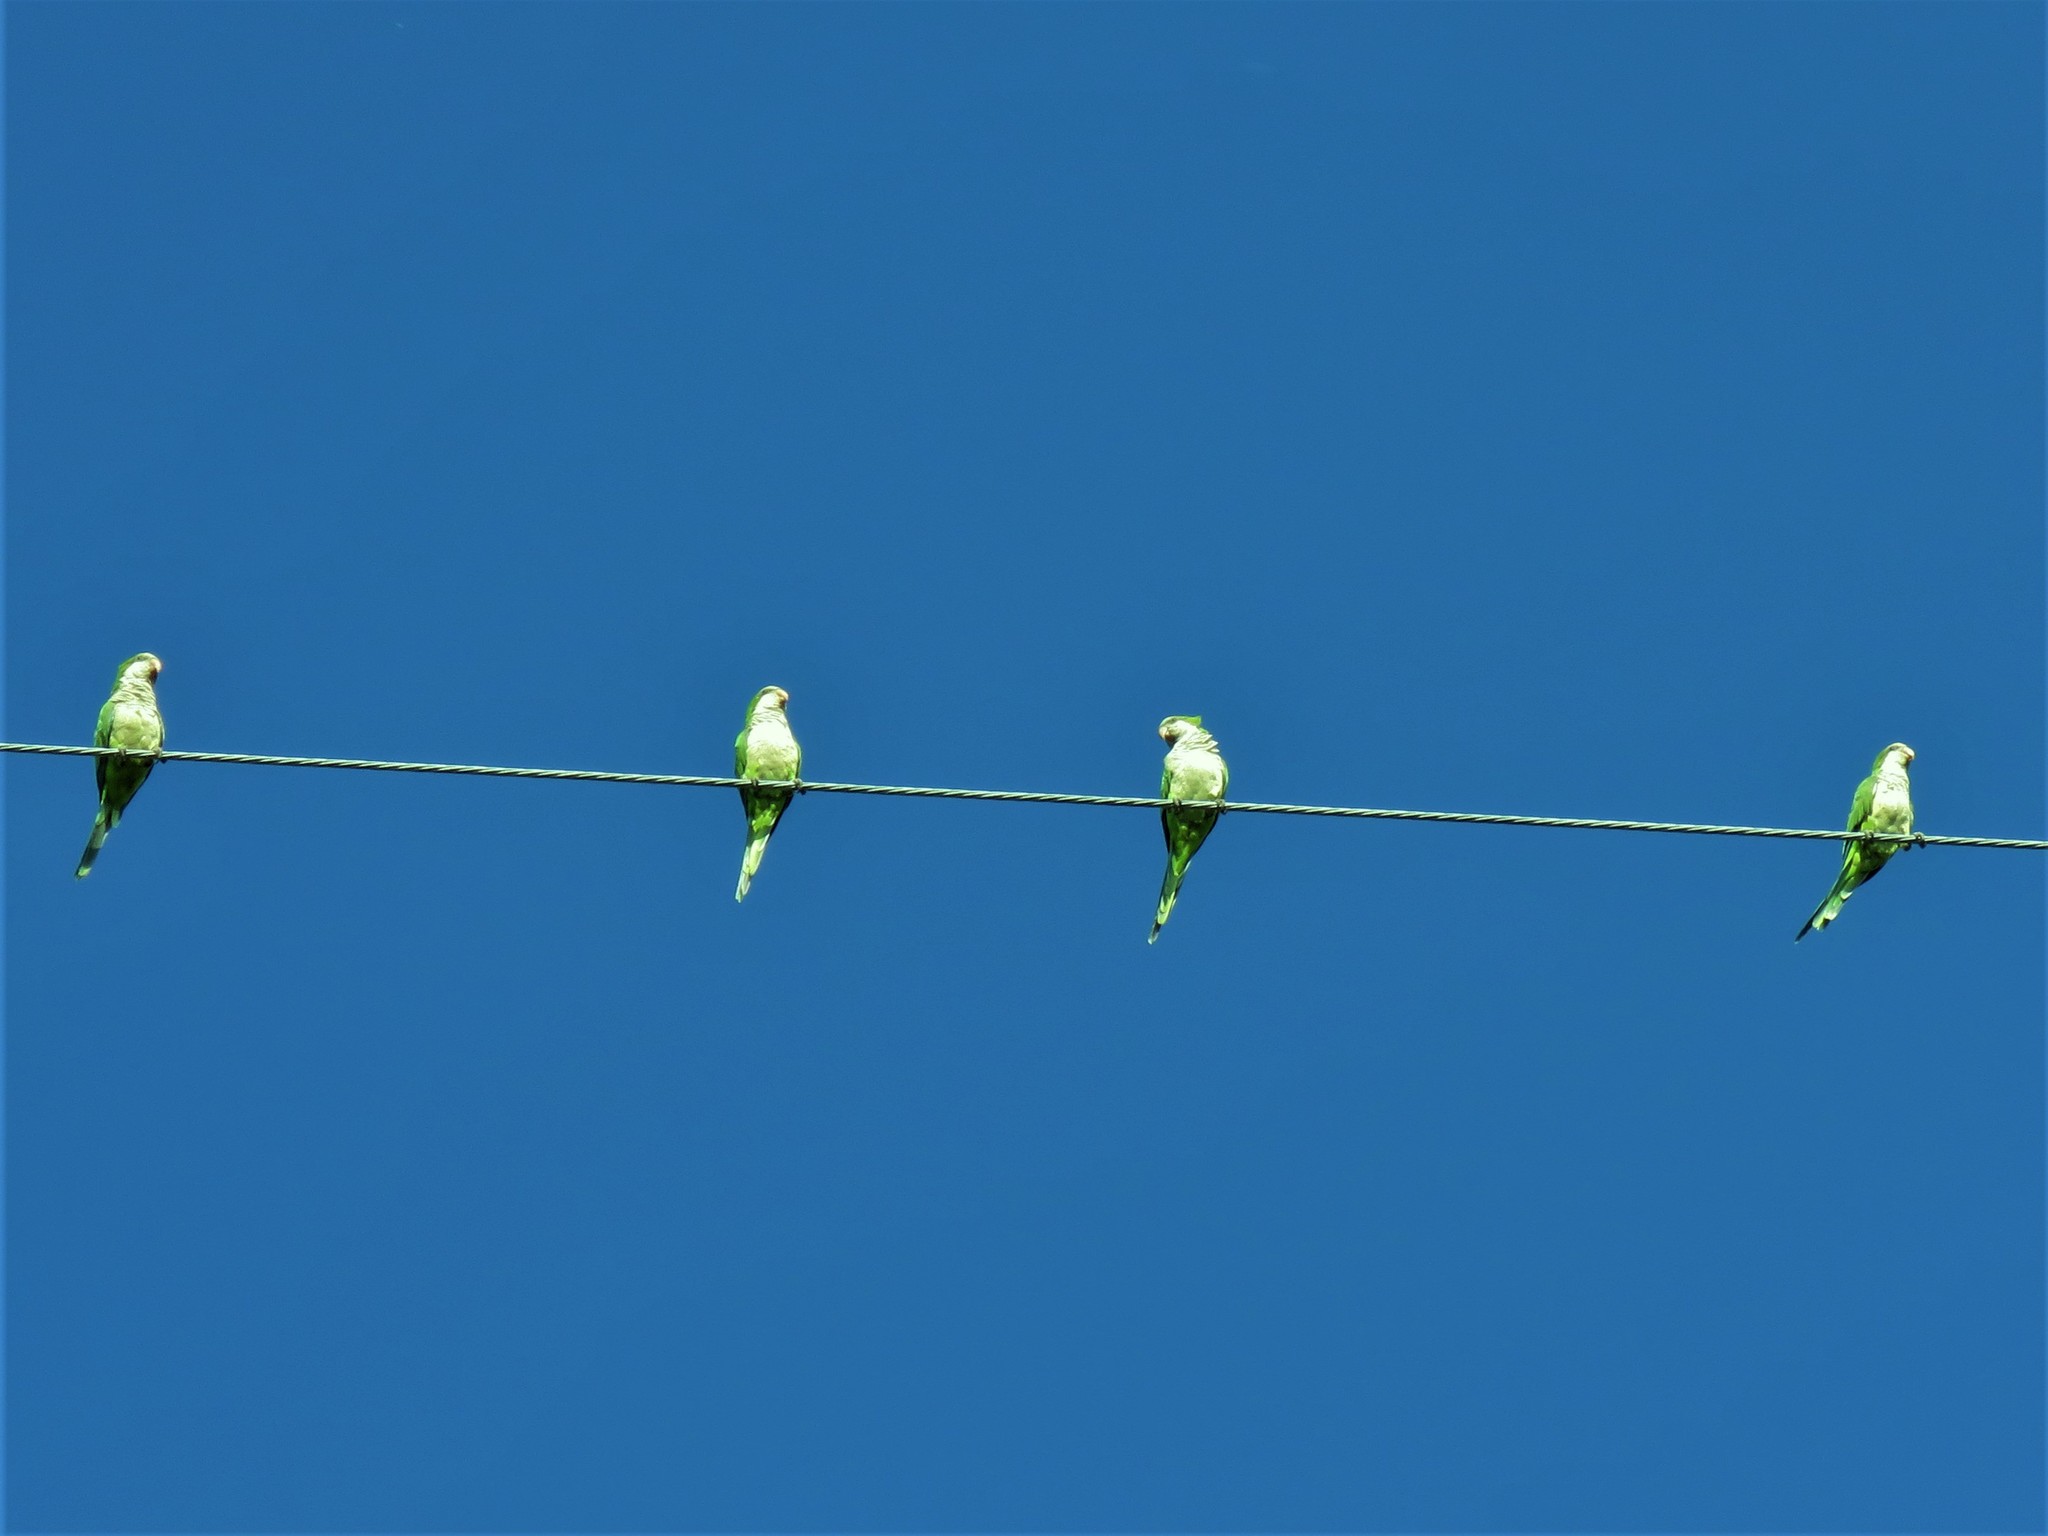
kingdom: Animalia
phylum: Chordata
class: Aves
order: Psittaciformes
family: Psittacidae
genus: Myiopsitta
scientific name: Myiopsitta monachus
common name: Monk parakeet
